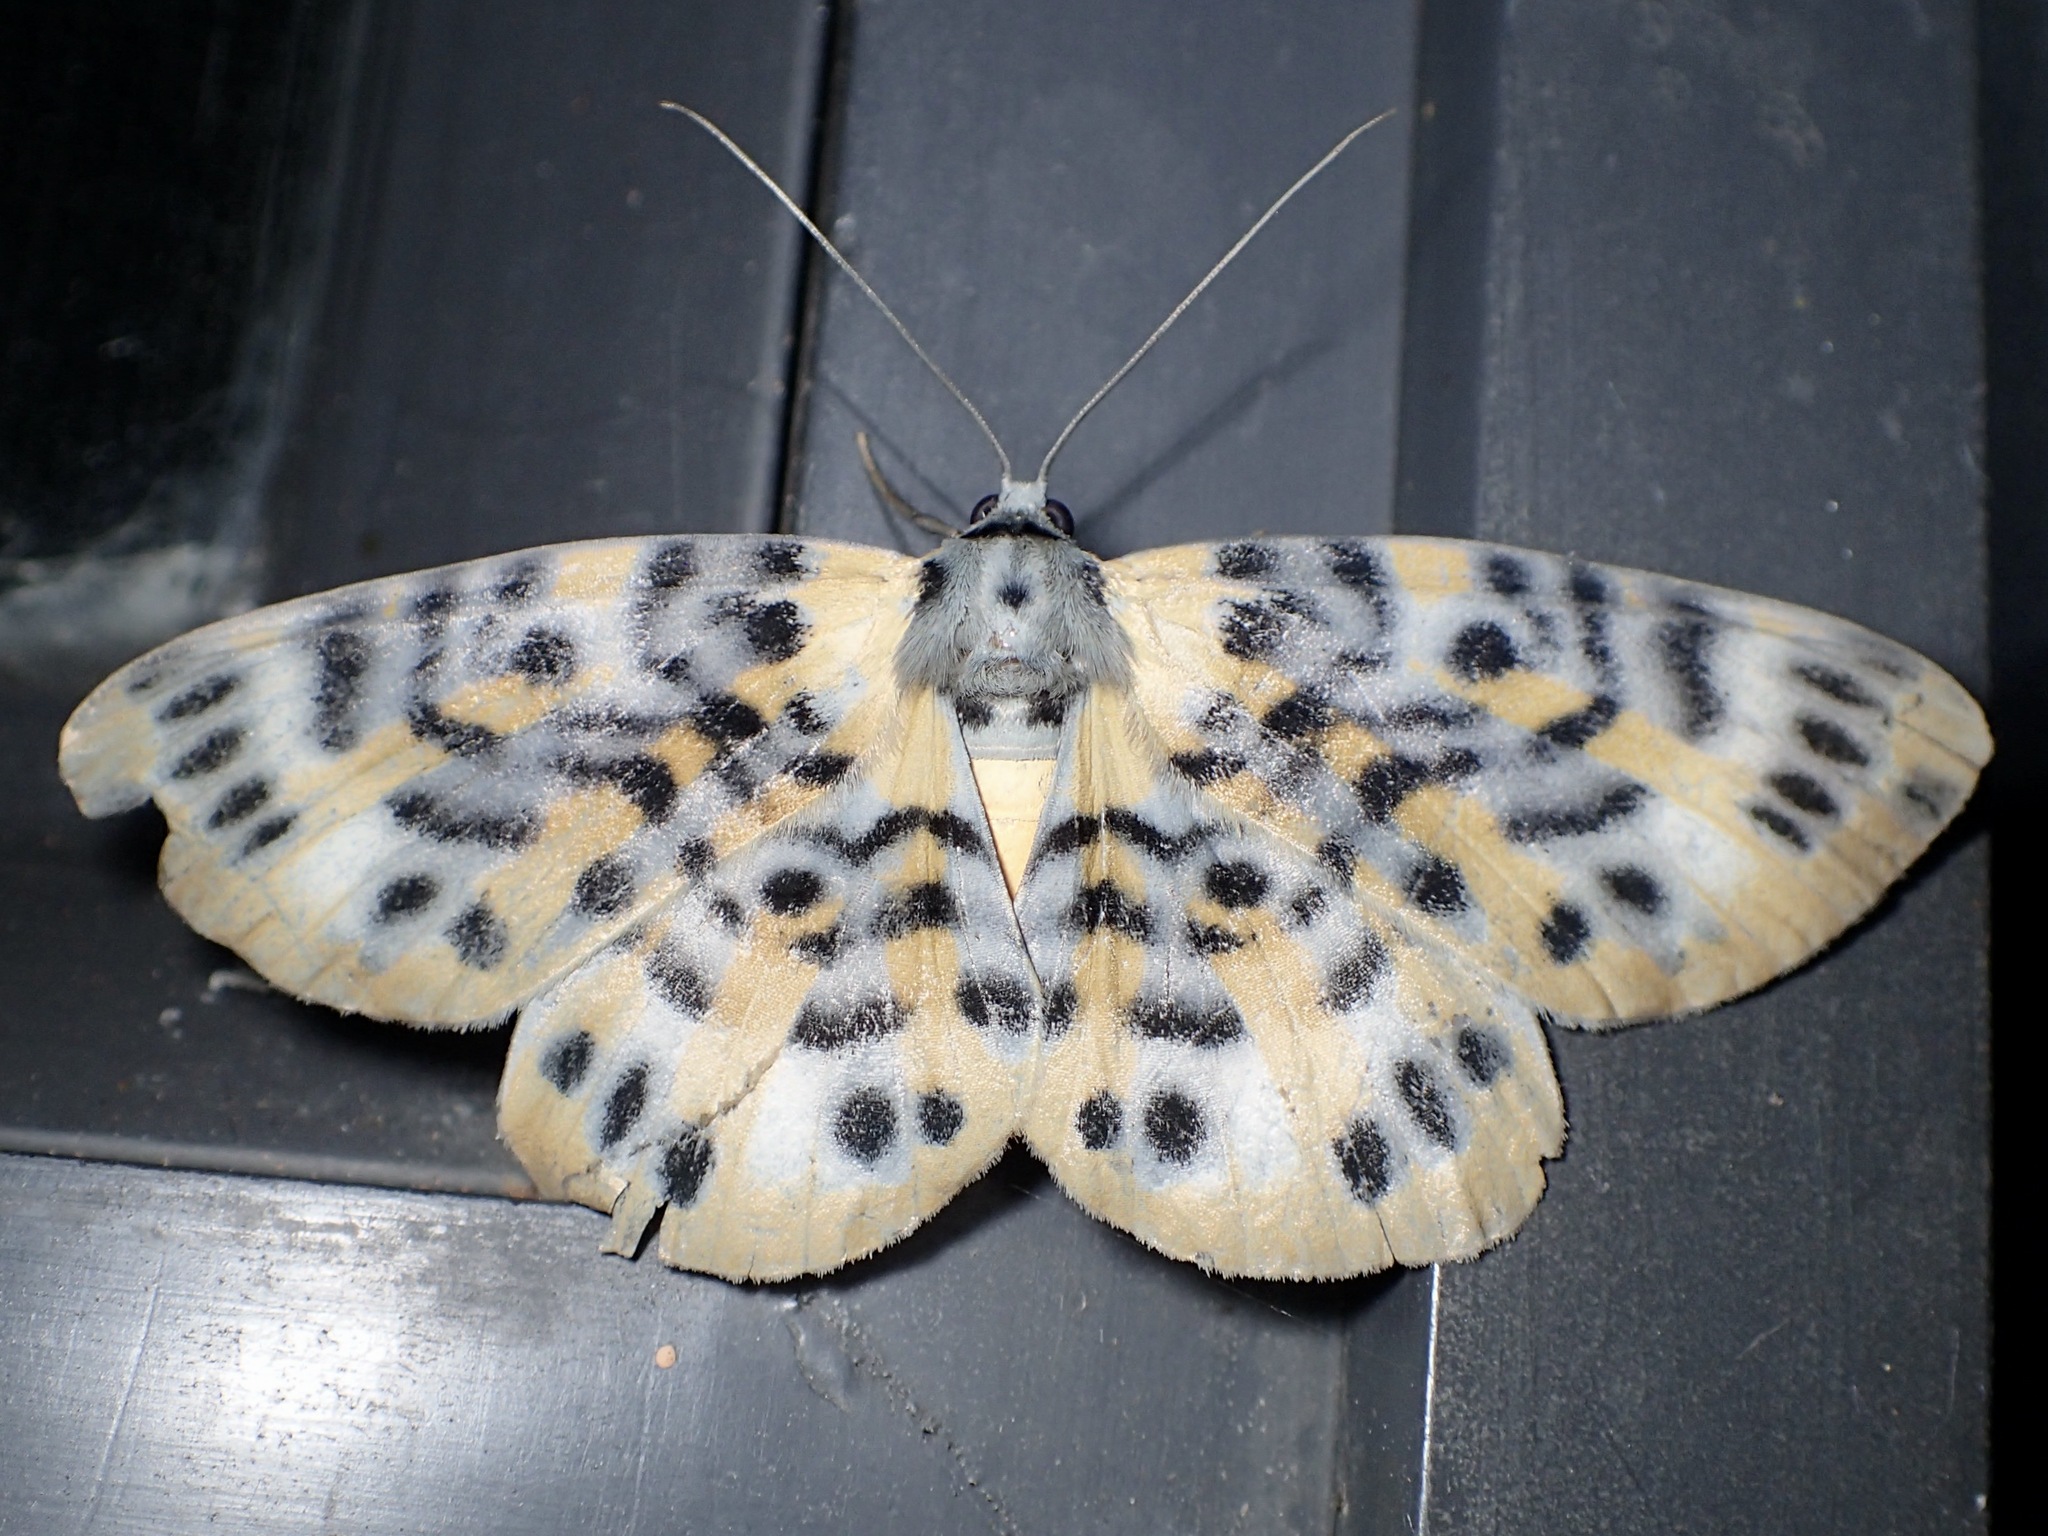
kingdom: Animalia
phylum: Arthropoda
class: Insecta
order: Lepidoptera
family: Geometridae
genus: Bracca
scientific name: Bracca rotundata
